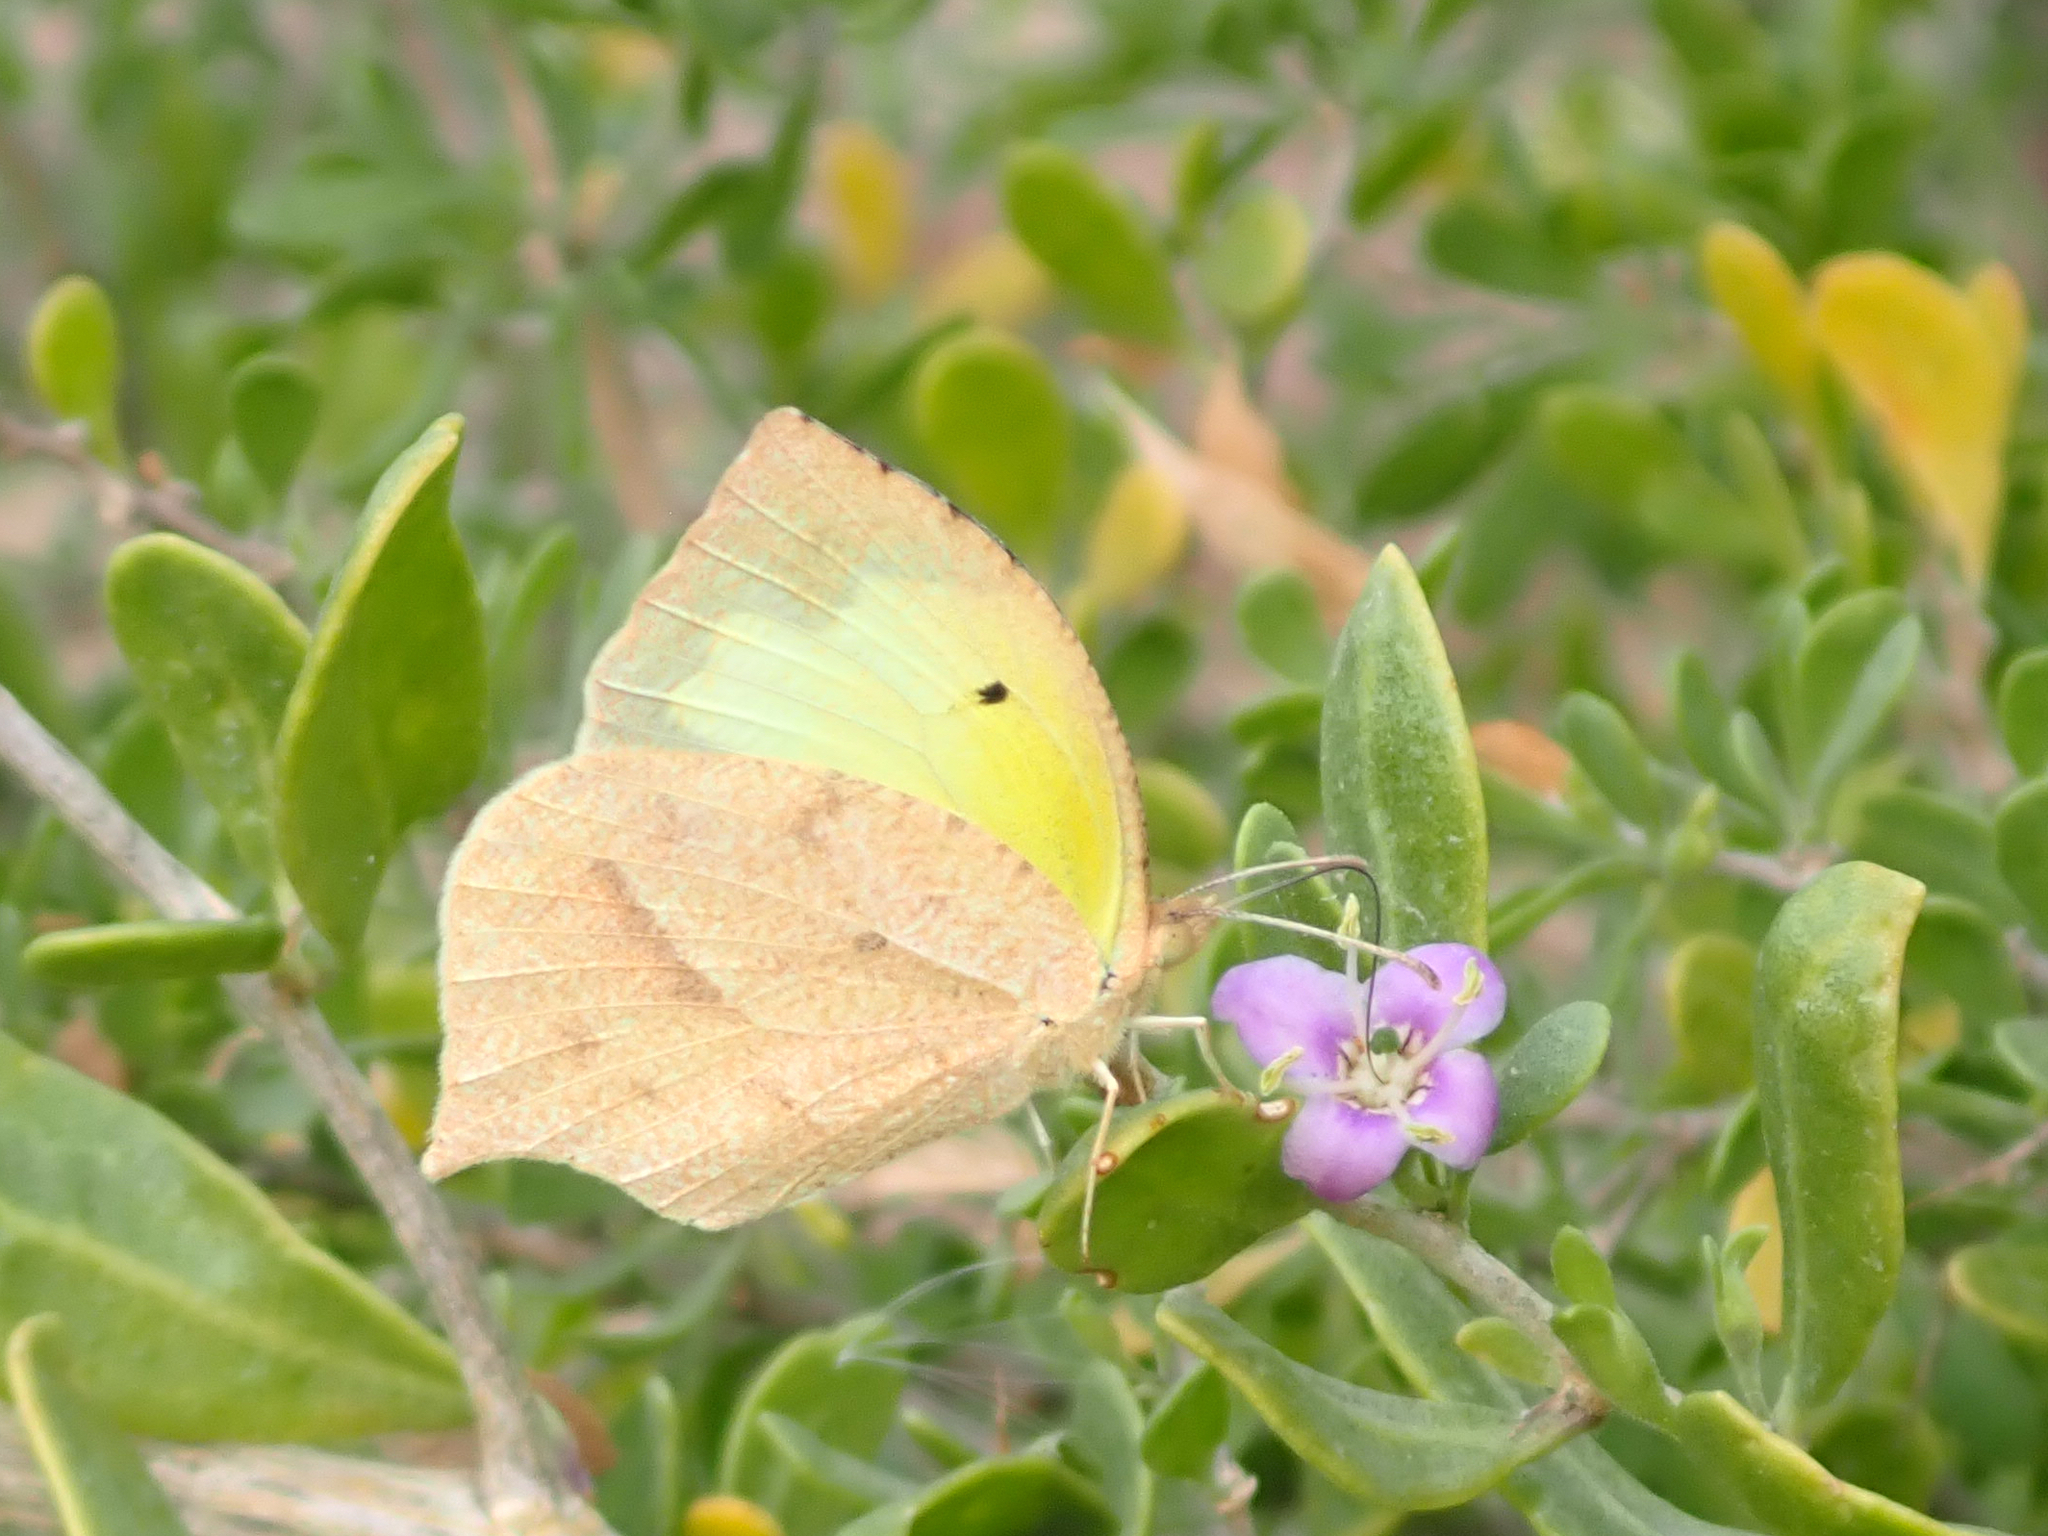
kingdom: Animalia
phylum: Arthropoda
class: Insecta
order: Lepidoptera
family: Pieridae
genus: Abaeis
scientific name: Abaeis mexicana
